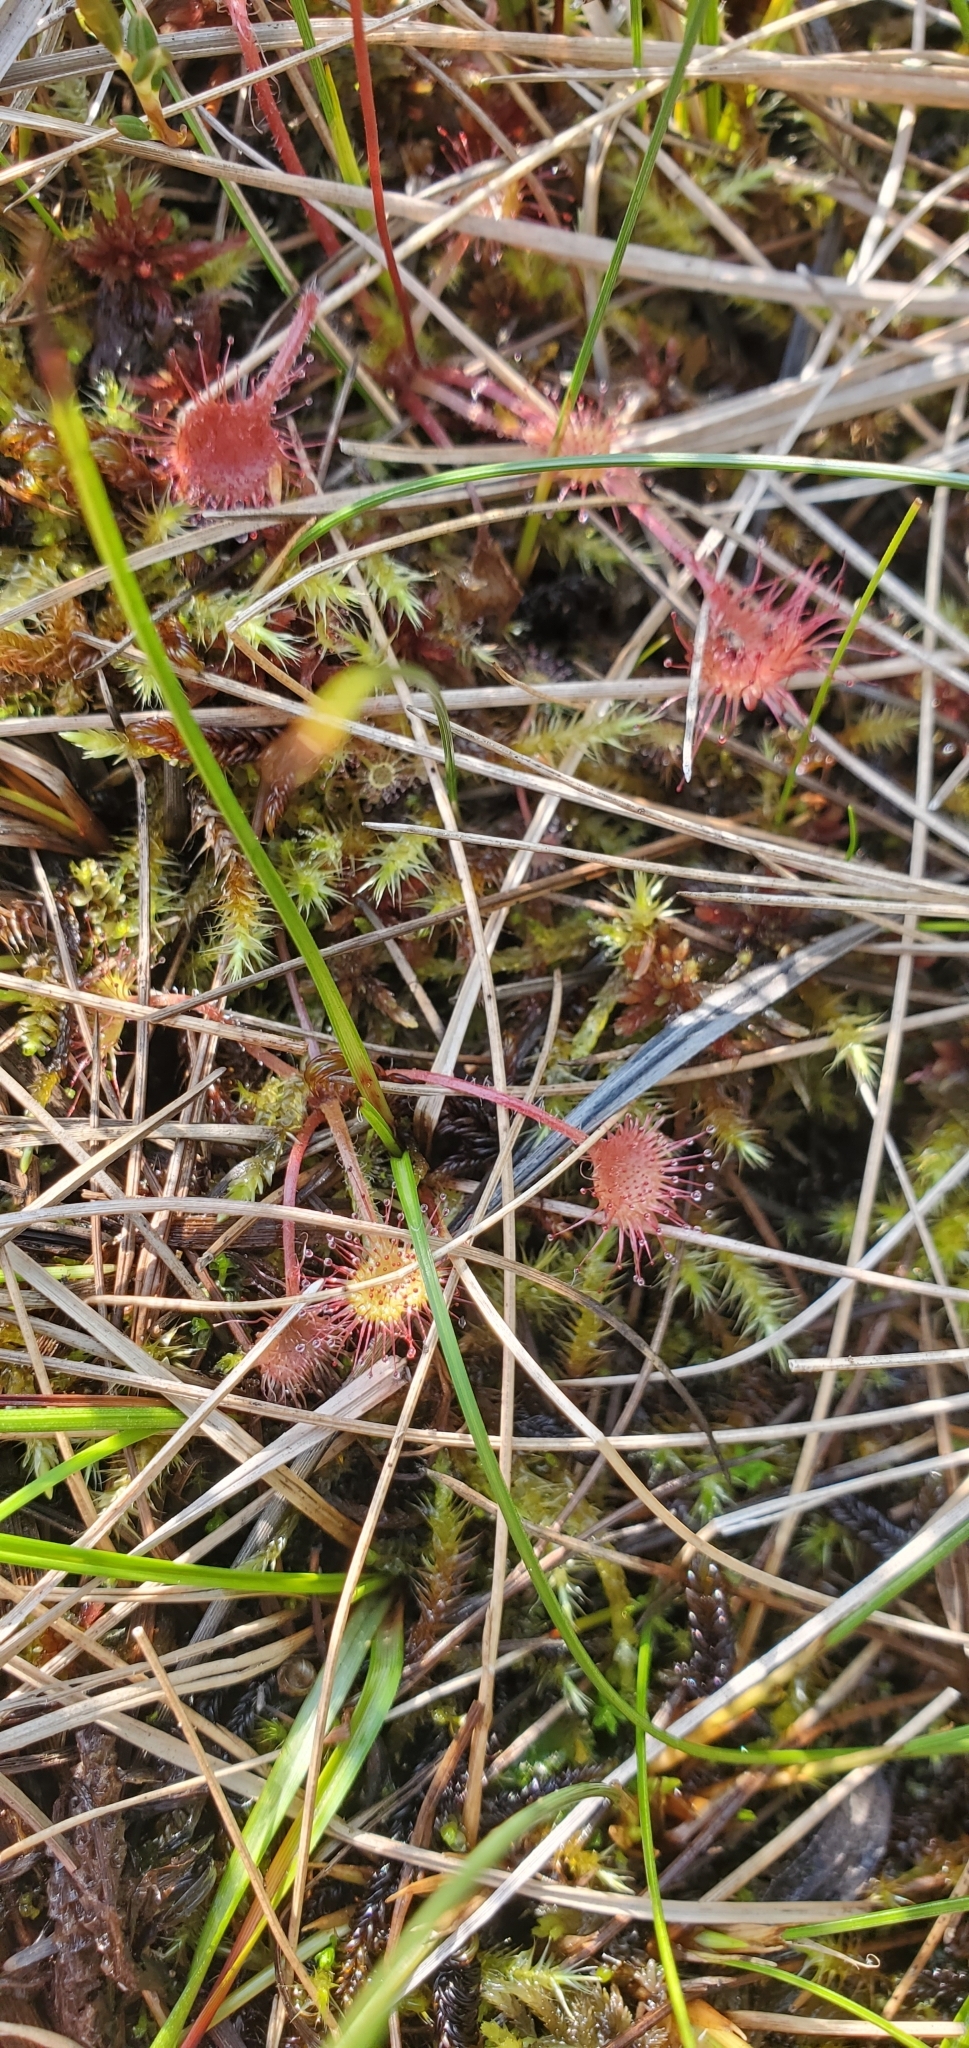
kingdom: Plantae
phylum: Tracheophyta
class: Magnoliopsida
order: Caryophyllales
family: Droseraceae
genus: Drosera
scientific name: Drosera rotundifolia
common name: Round-leaved sundew
